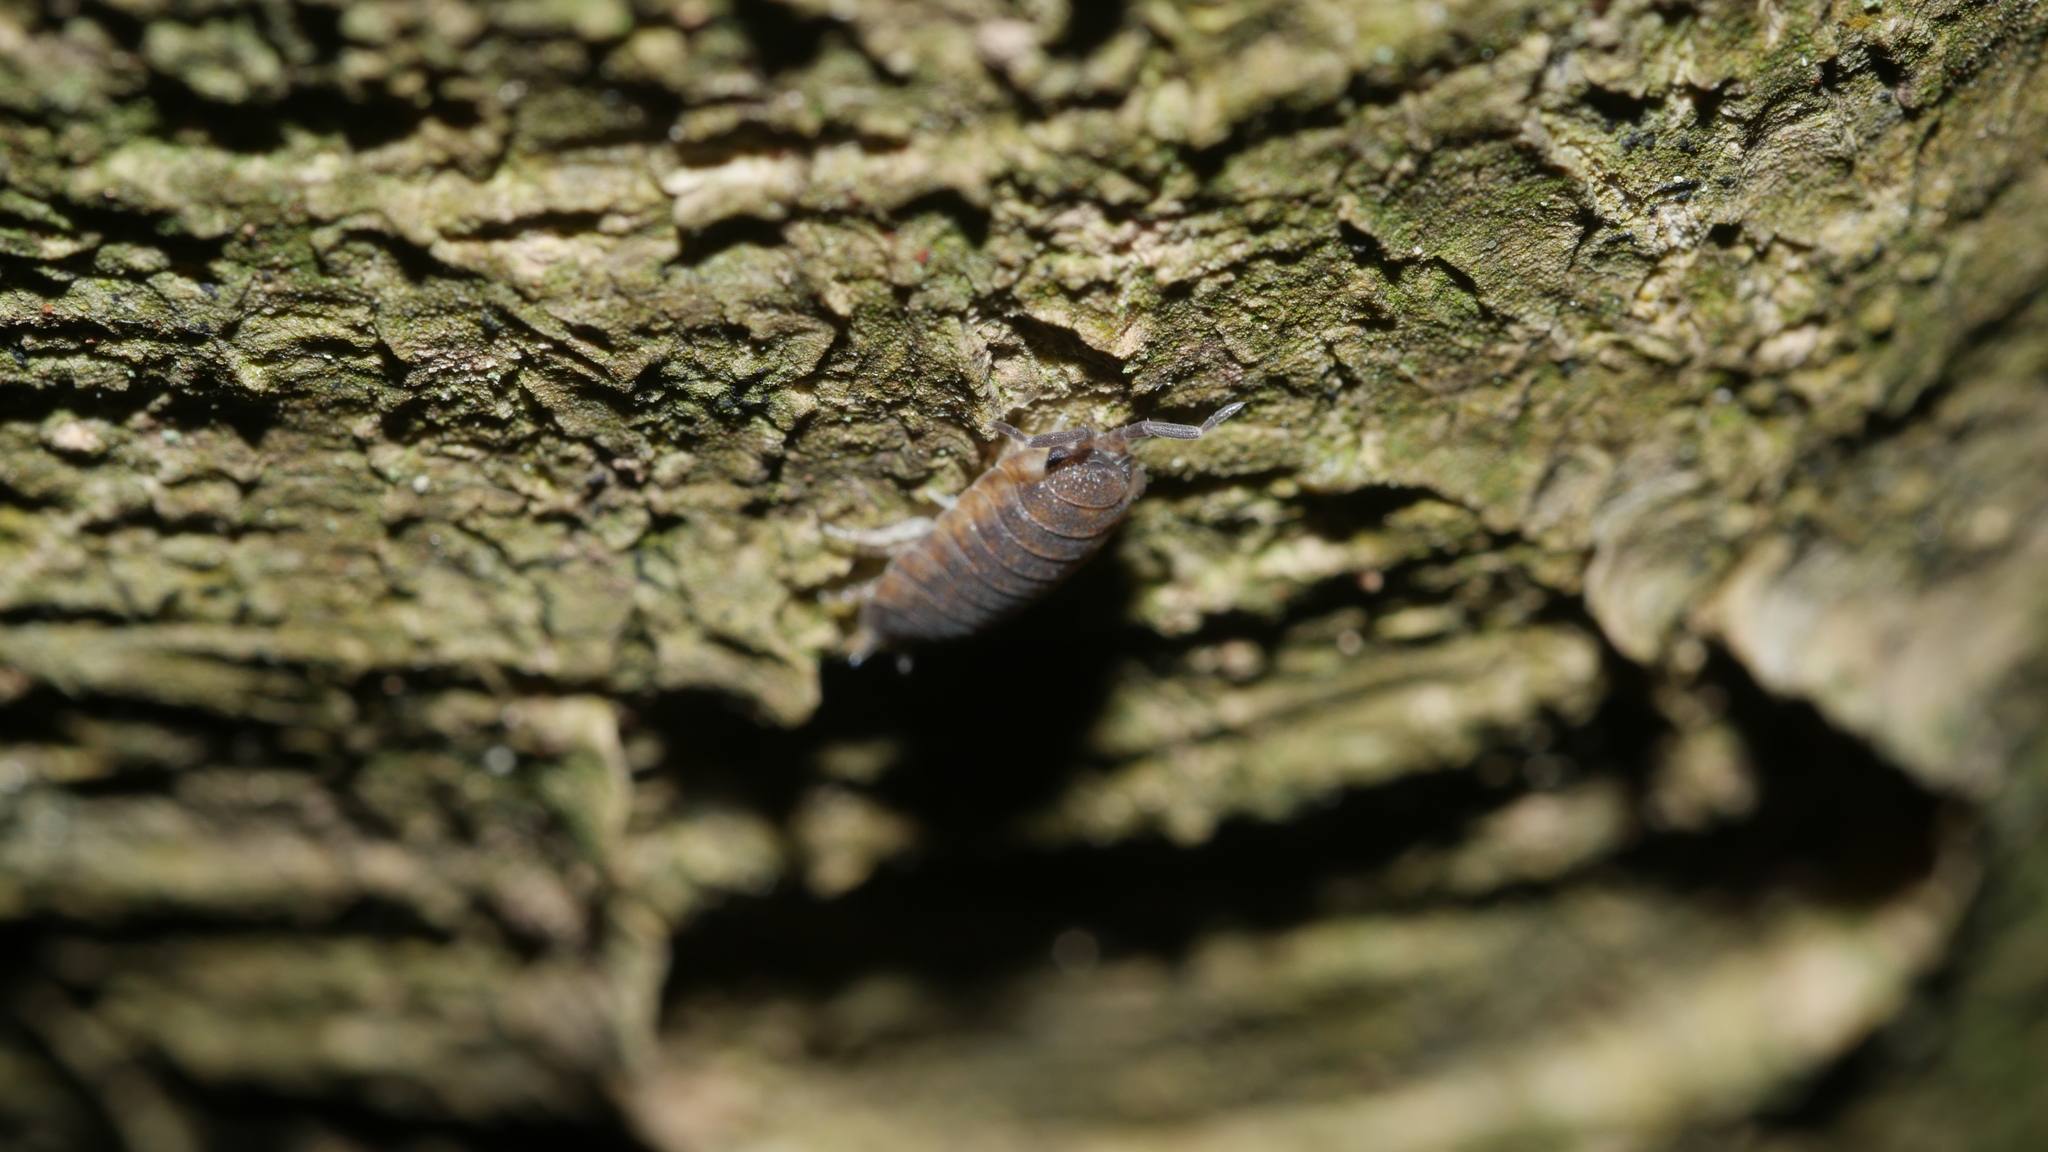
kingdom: Animalia
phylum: Arthropoda
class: Malacostraca
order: Isopoda
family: Porcellionidae
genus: Porcellio
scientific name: Porcellio scaber
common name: Common rough woodlouse
